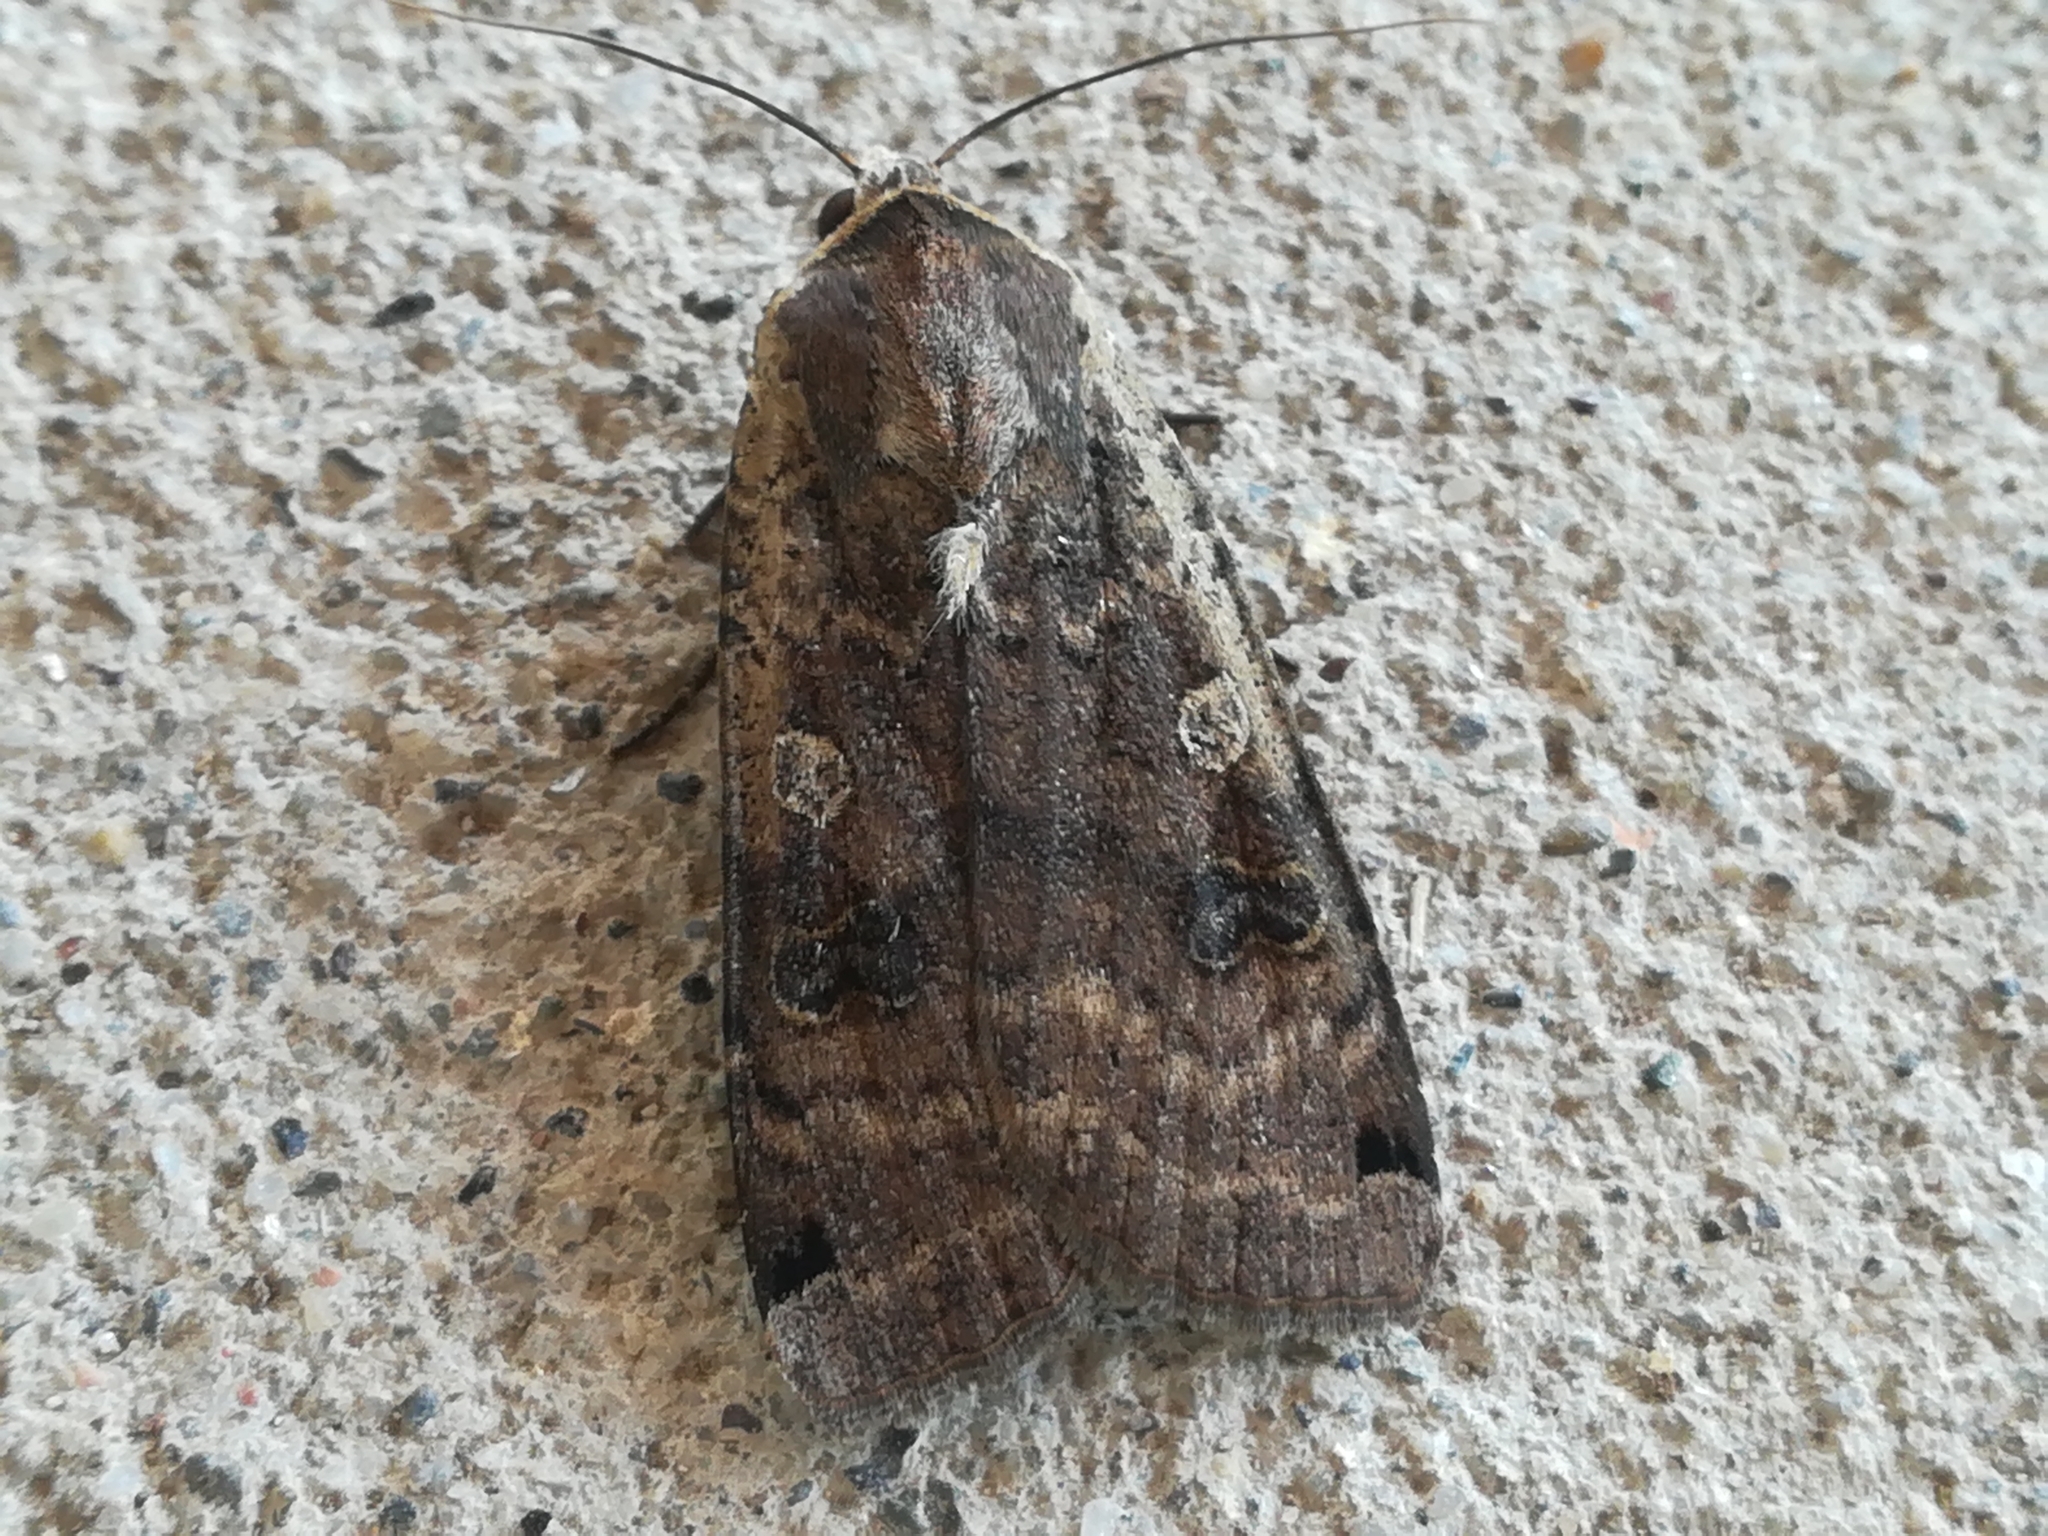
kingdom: Animalia
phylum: Arthropoda
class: Insecta
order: Lepidoptera
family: Noctuidae
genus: Noctua
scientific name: Noctua pronuba
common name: Large yellow underwing
